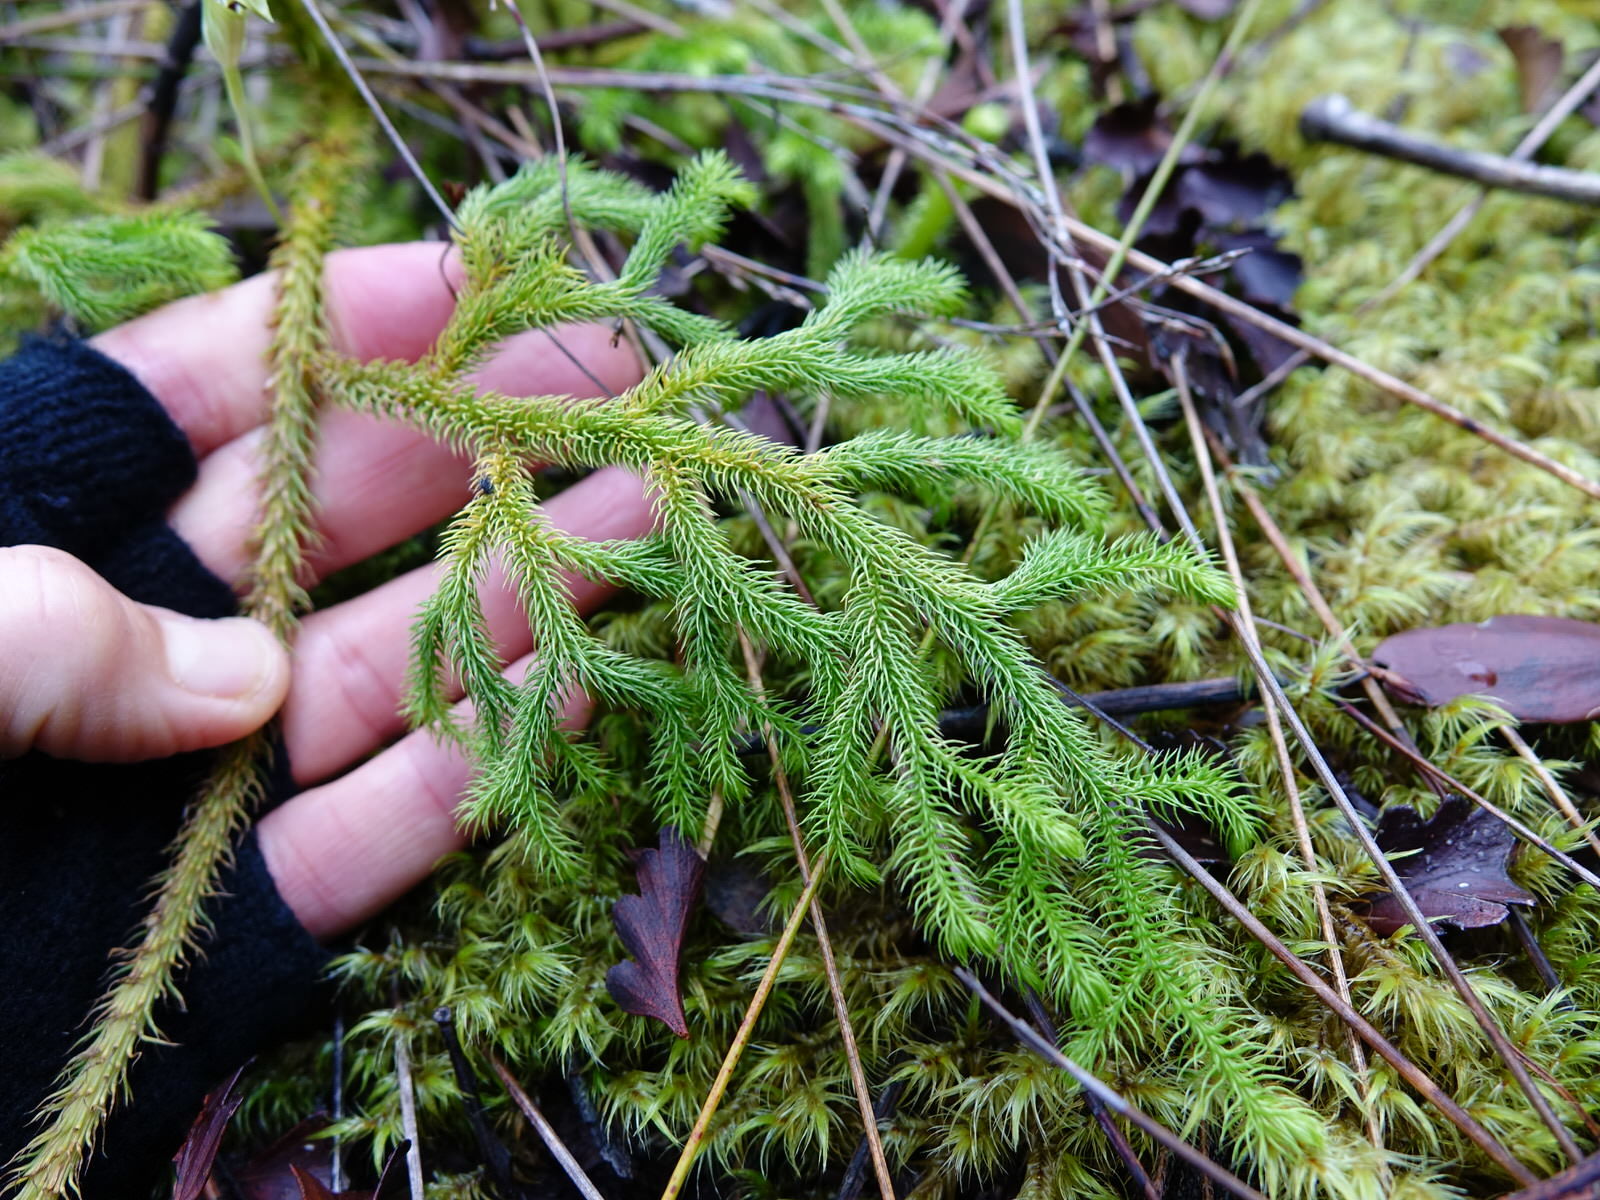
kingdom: Plantae
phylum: Tracheophyta
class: Lycopodiopsida
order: Lycopodiales
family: Lycopodiaceae
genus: Palhinhaea
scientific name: Palhinhaea cernua
